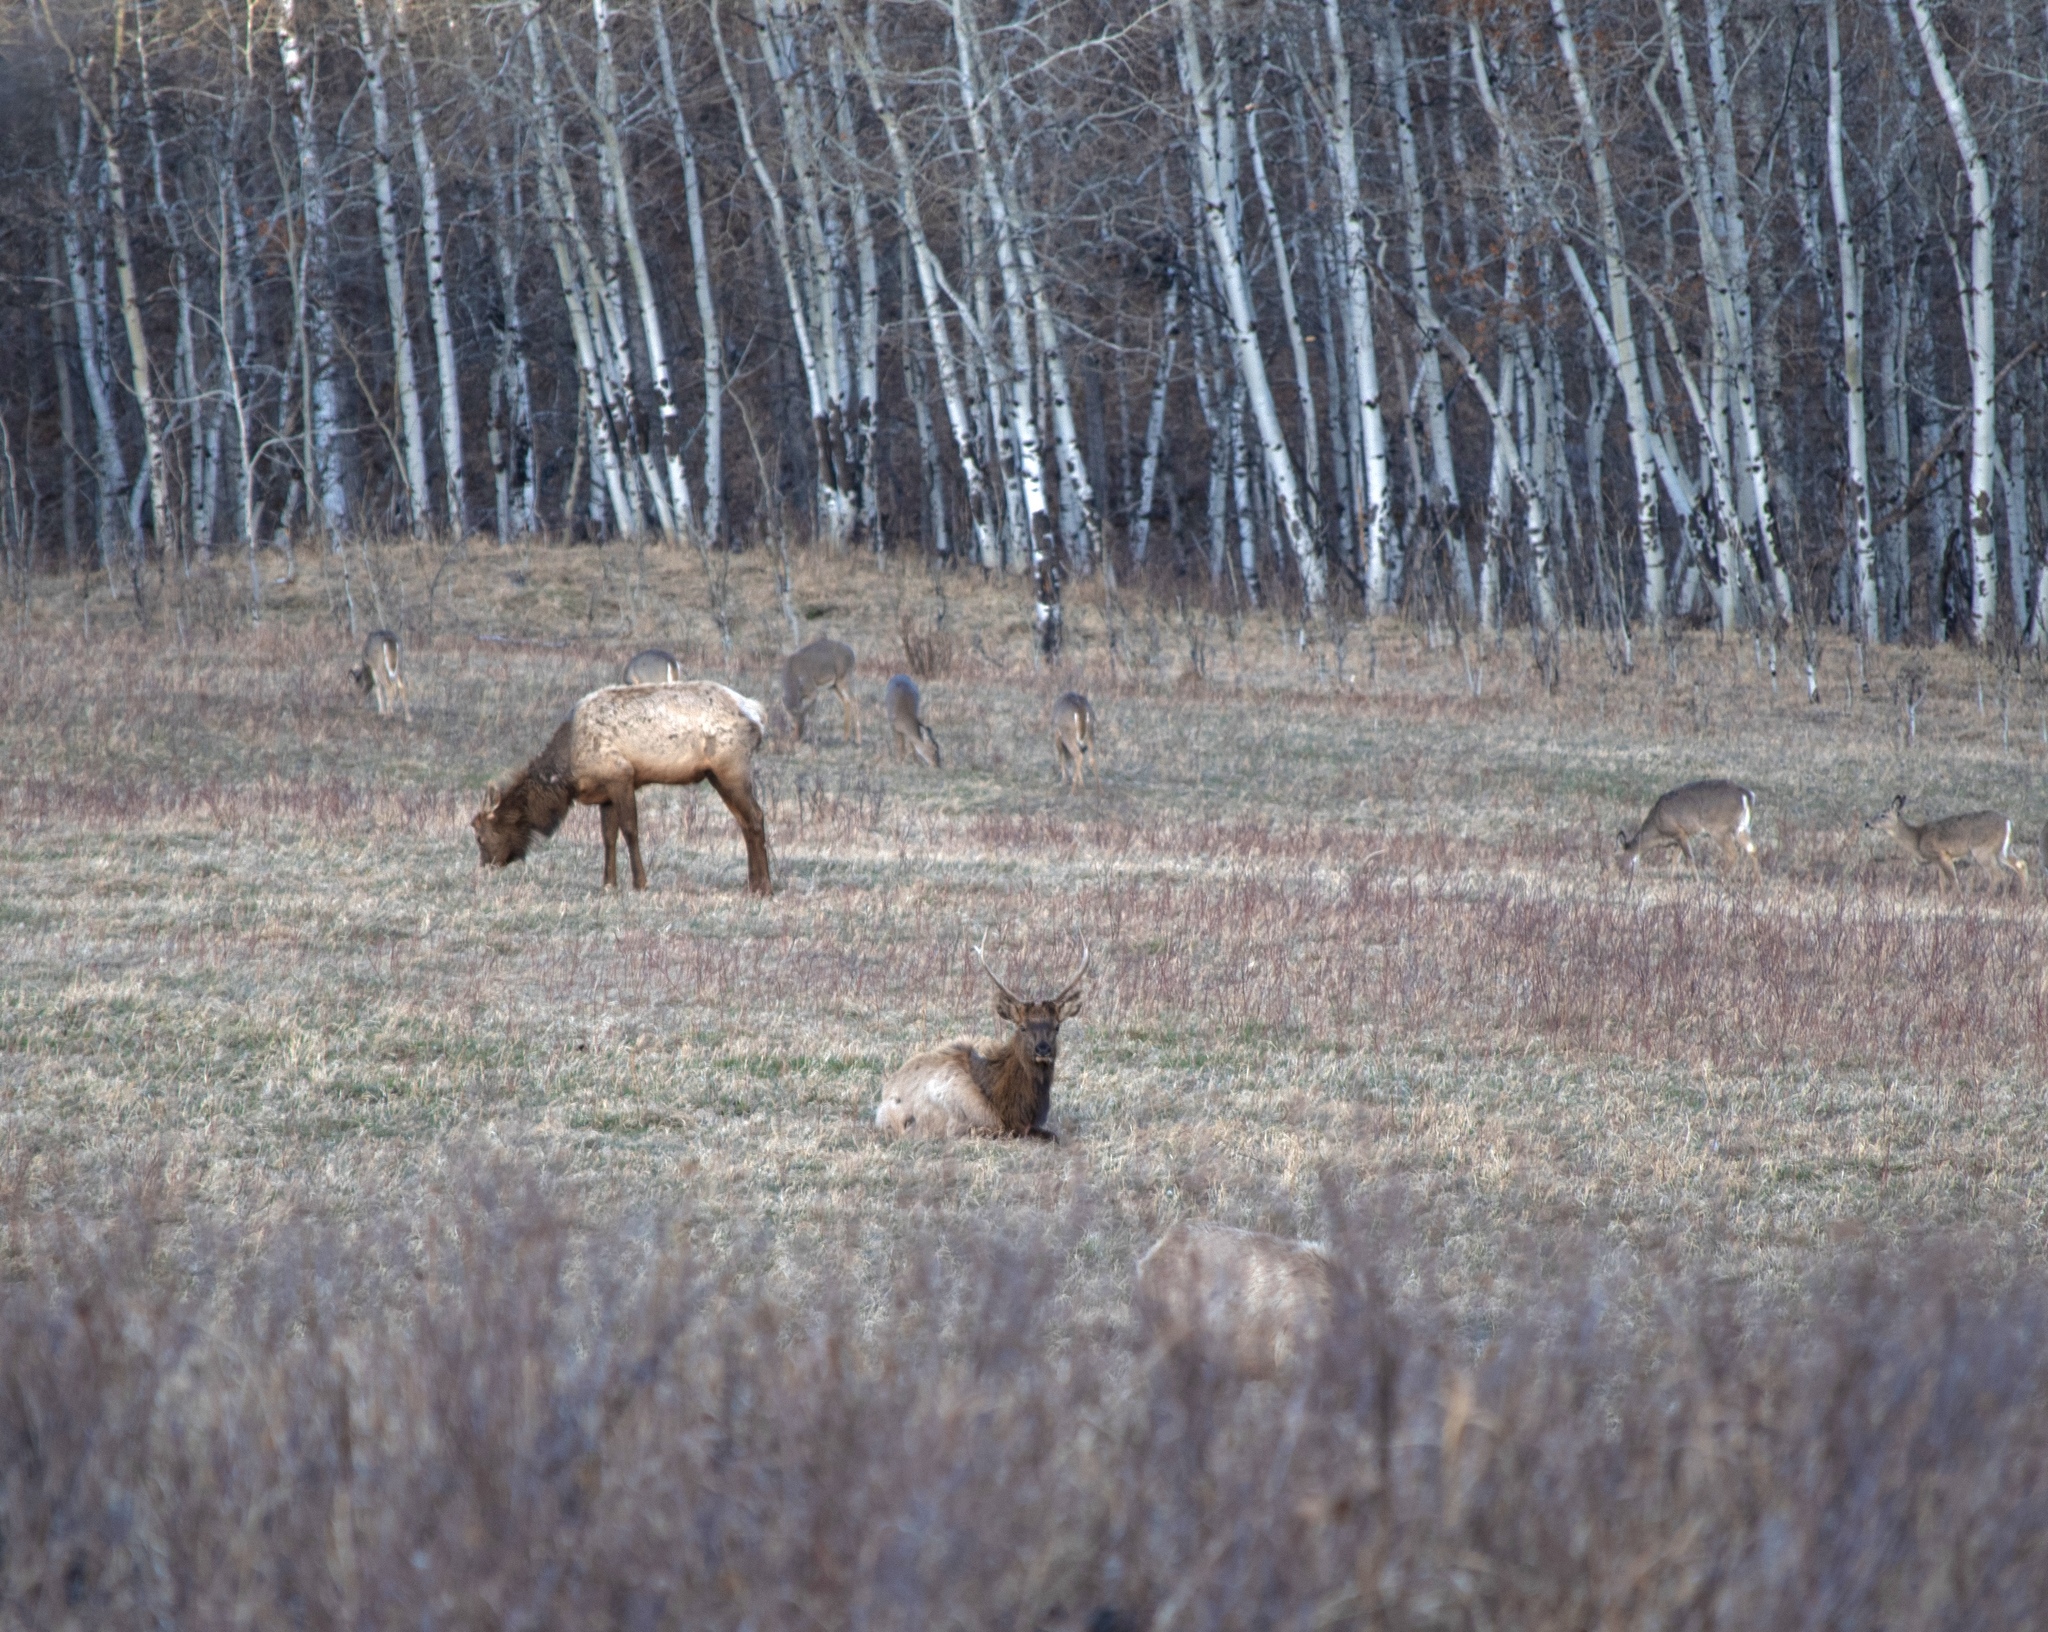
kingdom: Animalia
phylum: Chordata
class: Mammalia
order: Artiodactyla
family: Cervidae
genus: Cervus
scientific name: Cervus elaphus
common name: Red deer
